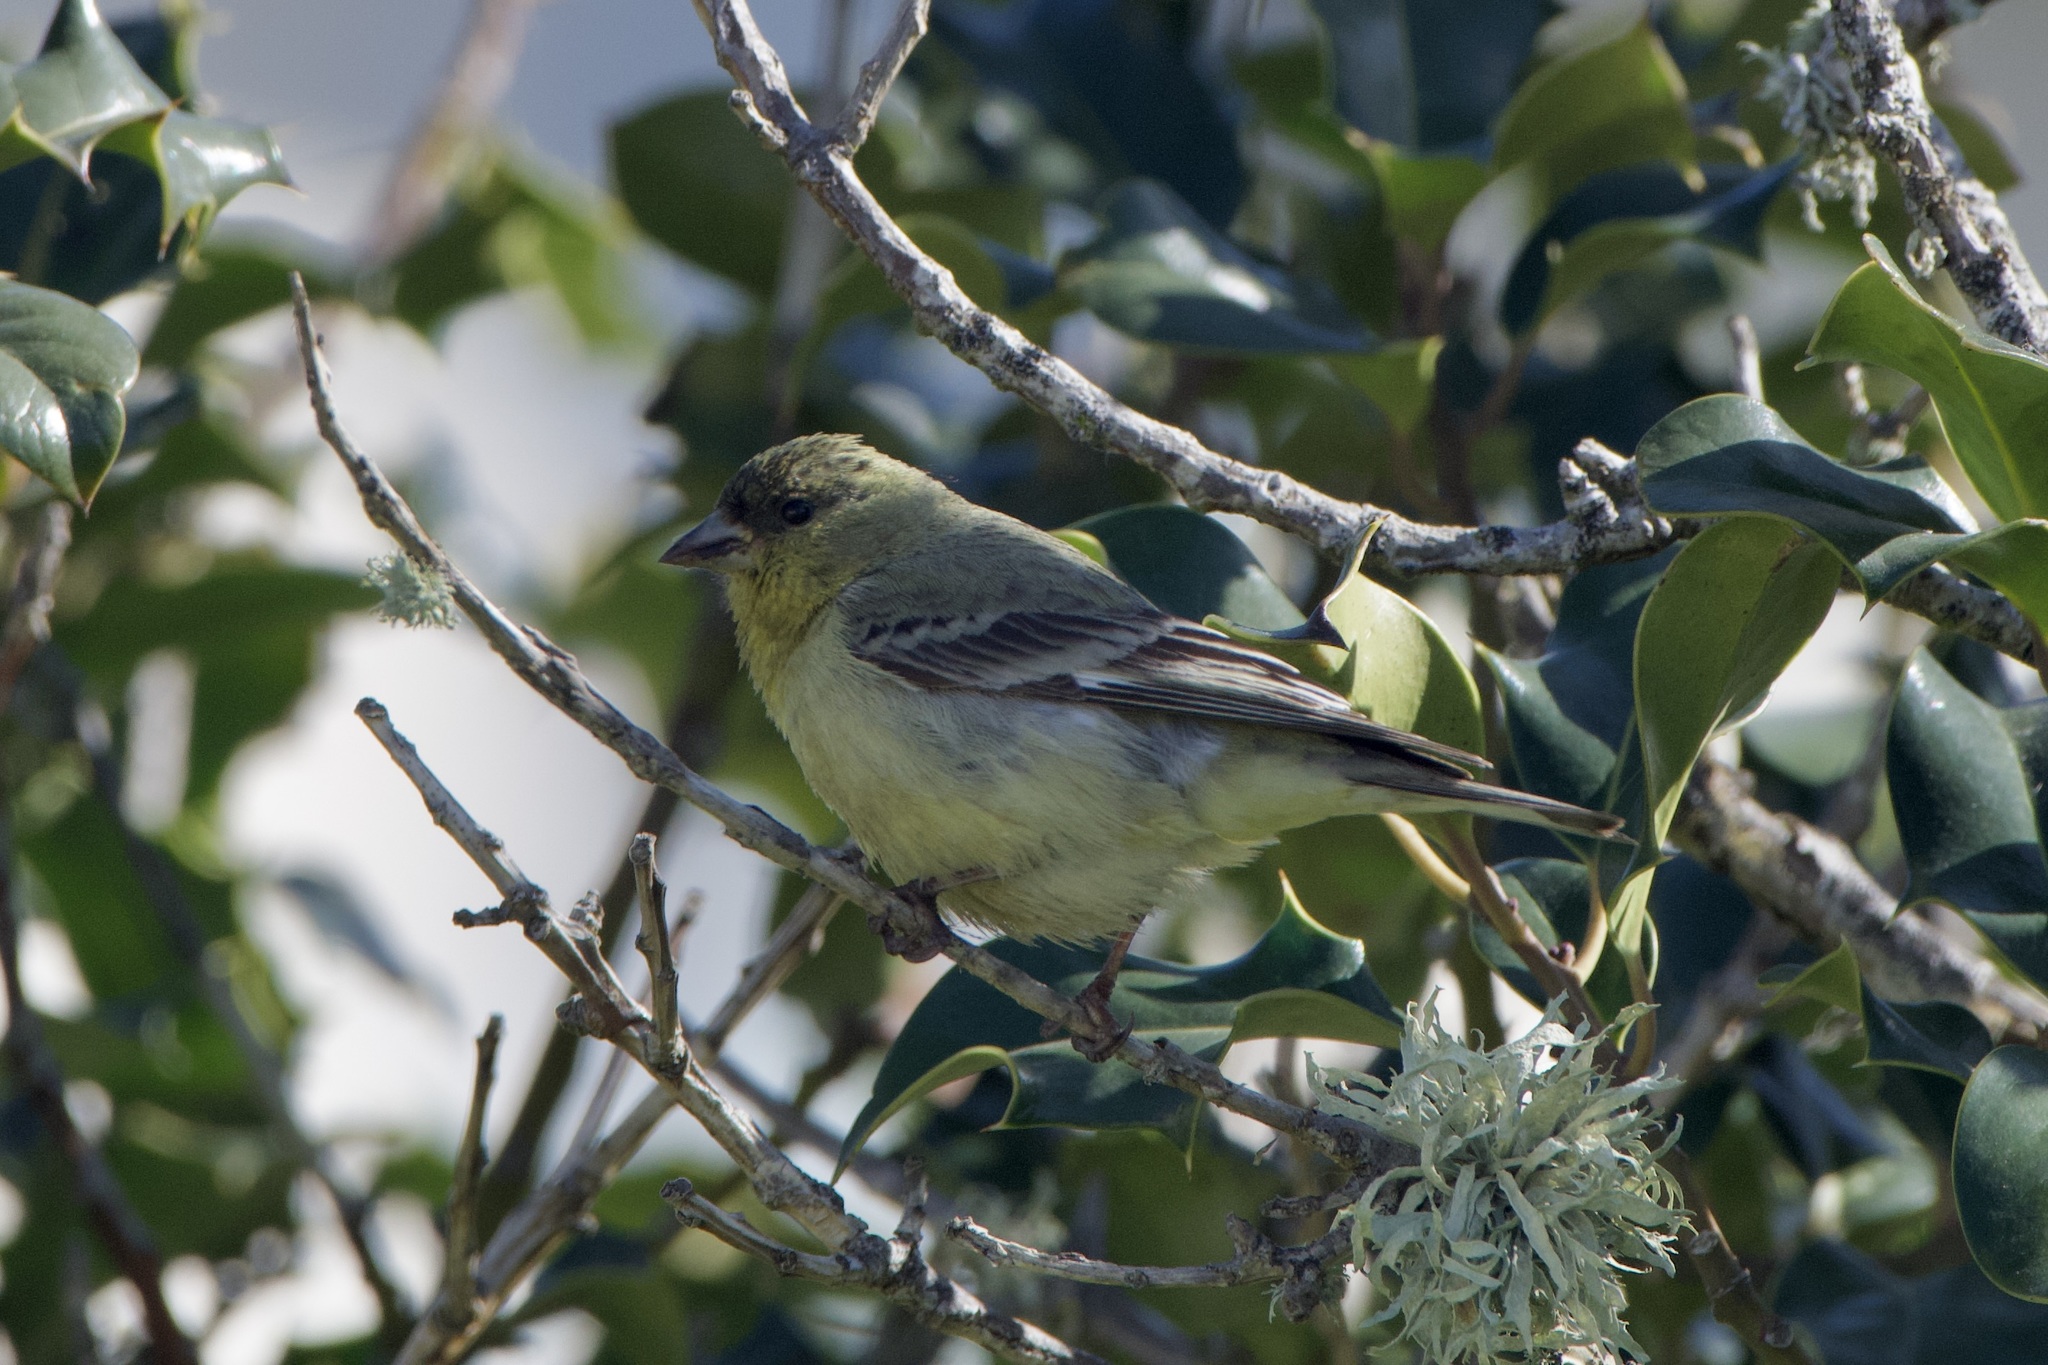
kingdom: Animalia
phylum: Chordata
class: Aves
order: Passeriformes
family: Fringillidae
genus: Spinus
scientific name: Spinus psaltria
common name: Lesser goldfinch
